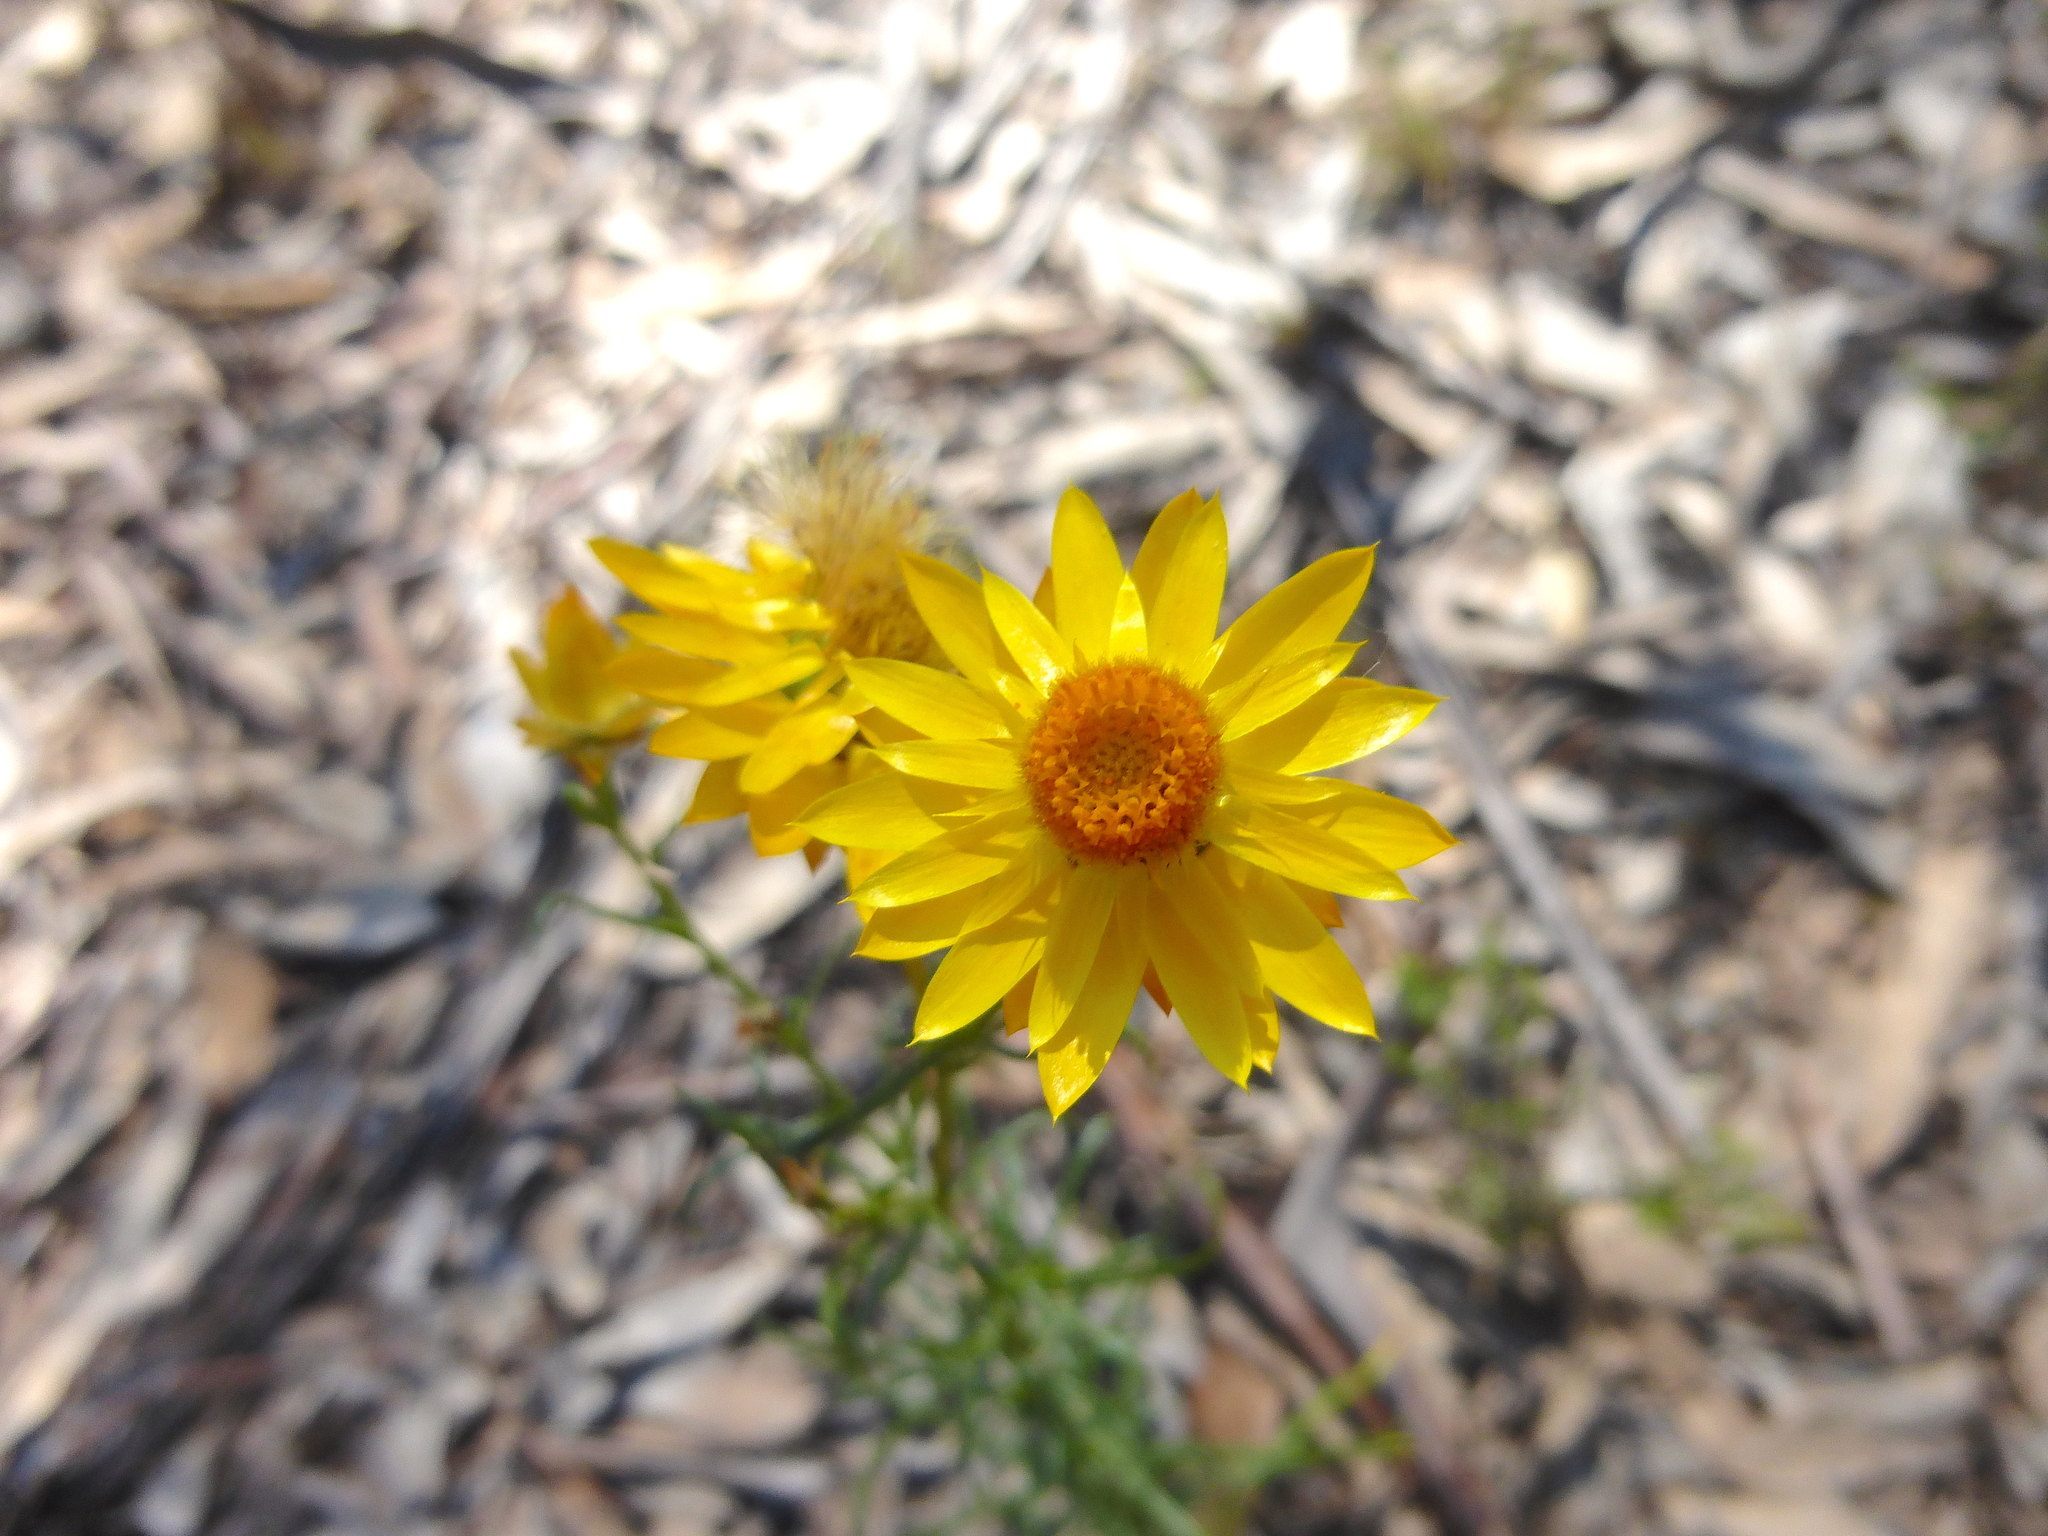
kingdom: Plantae
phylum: Tracheophyta
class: Magnoliopsida
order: Asterales
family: Asteraceae
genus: Xerochrysum
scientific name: Xerochrysum viscosum
